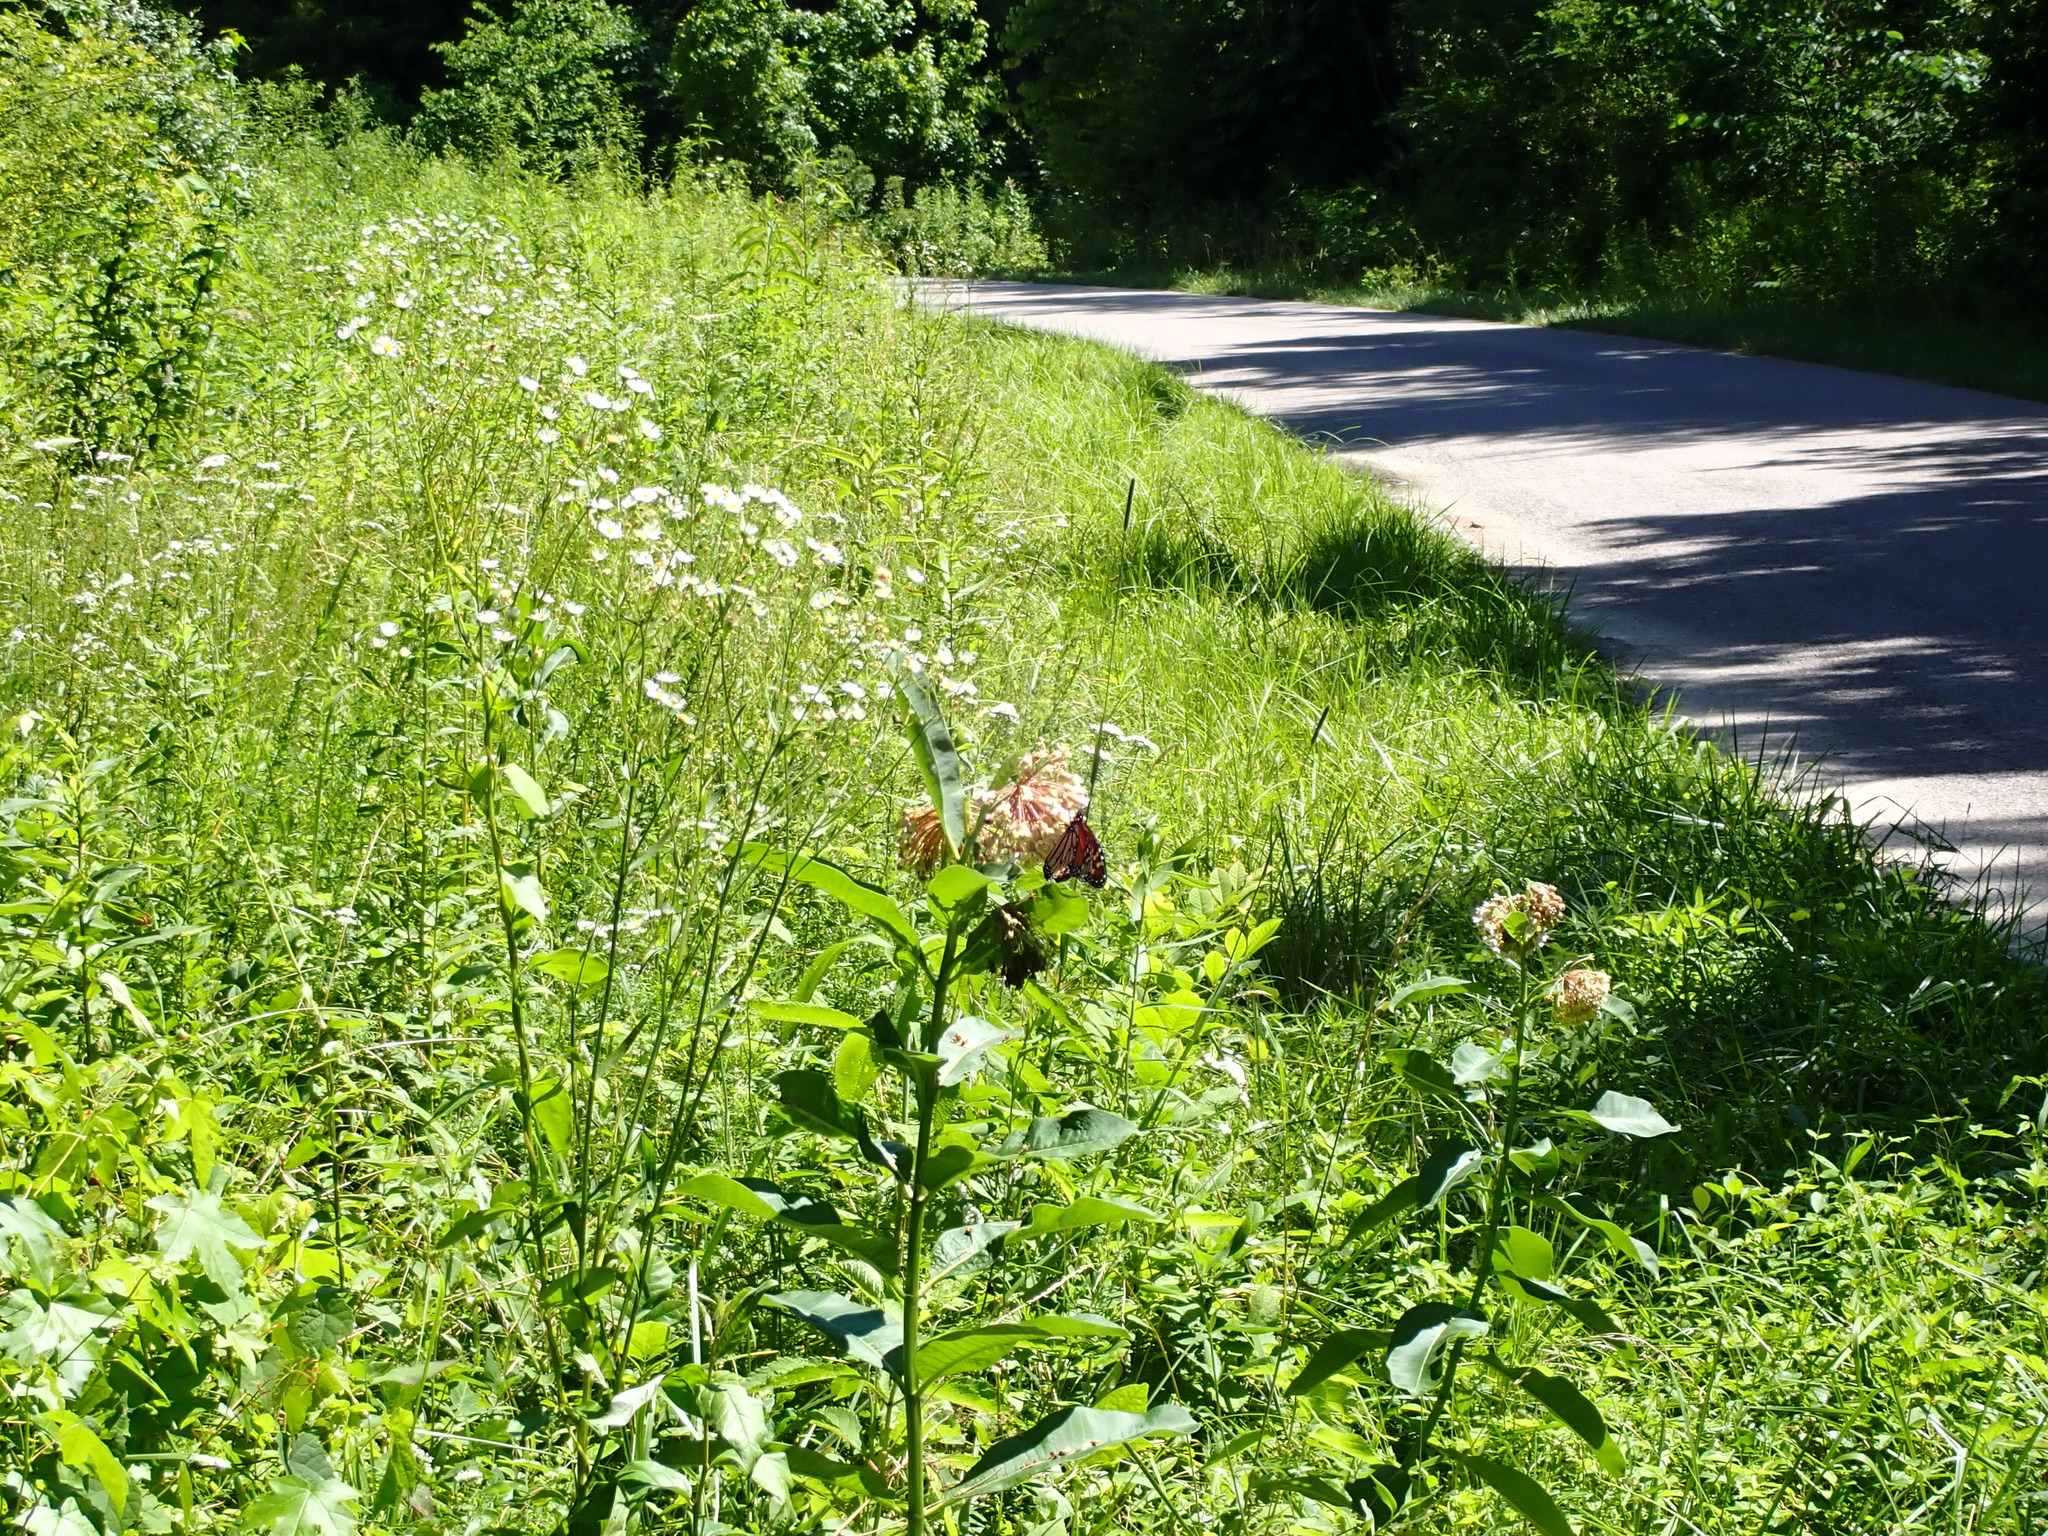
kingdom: Animalia
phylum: Arthropoda
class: Insecta
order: Lepidoptera
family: Nymphalidae
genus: Danaus
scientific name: Danaus plexippus
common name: Monarch
